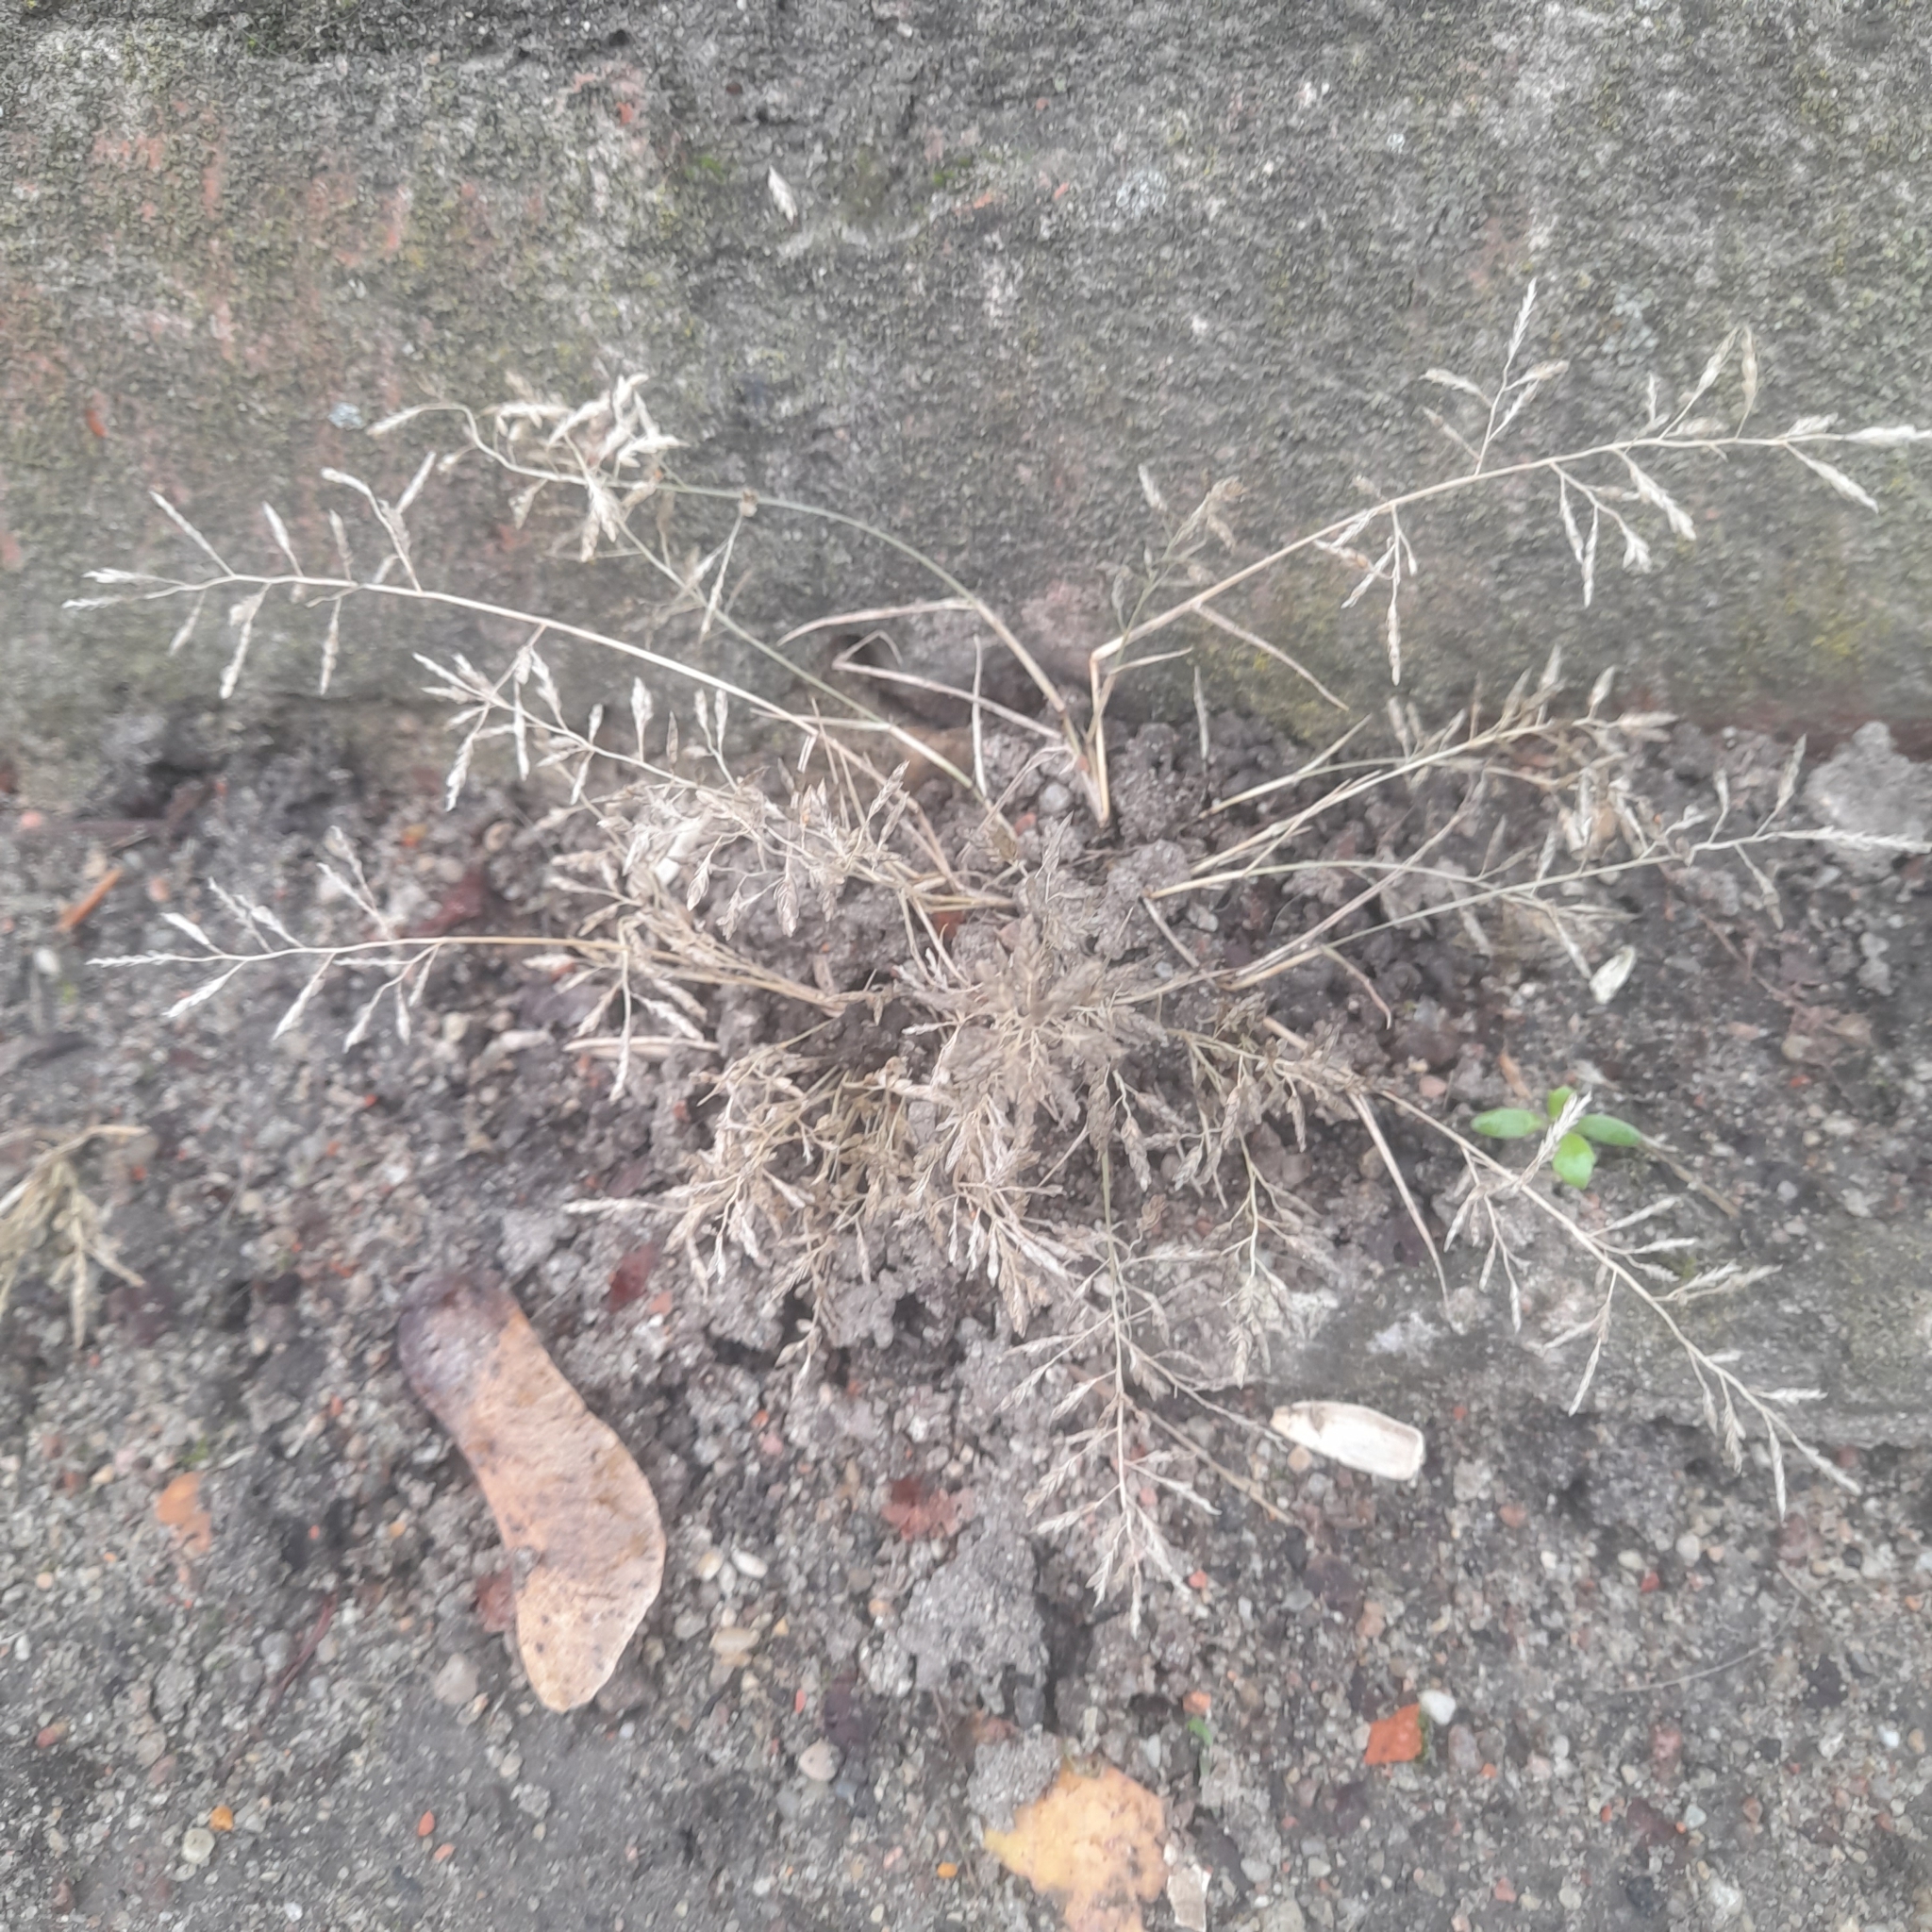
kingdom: Plantae
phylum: Tracheophyta
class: Liliopsida
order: Poales
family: Poaceae
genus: Eragrostis
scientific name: Eragrostis minor
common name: Small love-grass
